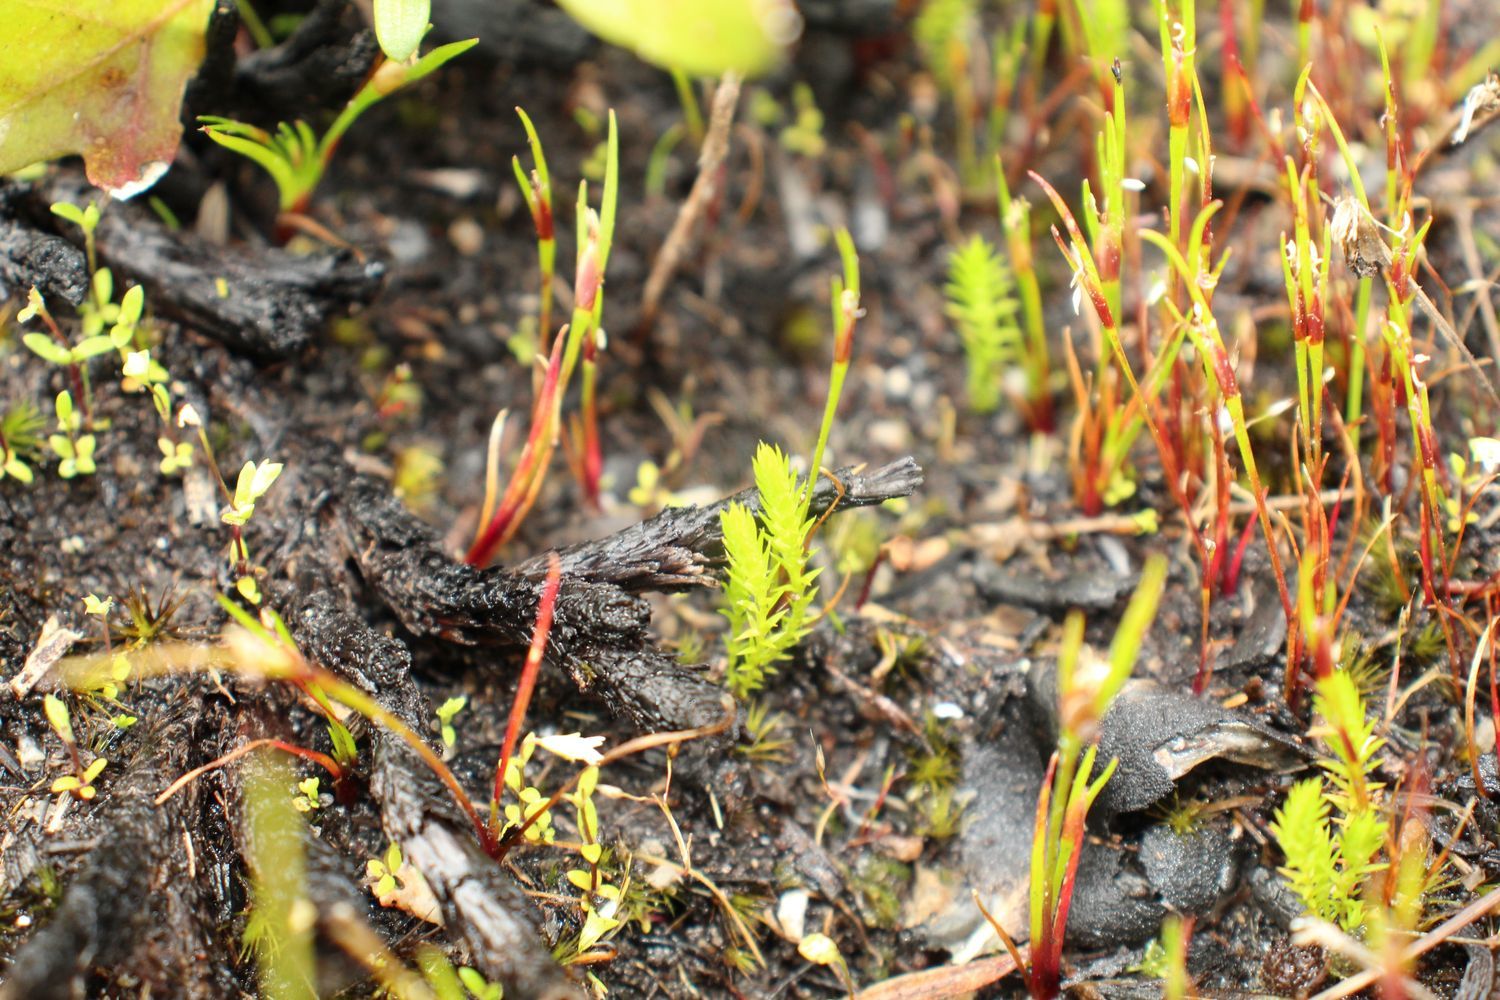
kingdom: Plantae
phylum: Tracheophyta
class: Lycopodiopsida
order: Selaginellales
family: Selaginellaceae
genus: Selaginella
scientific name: Selaginella gracillima
